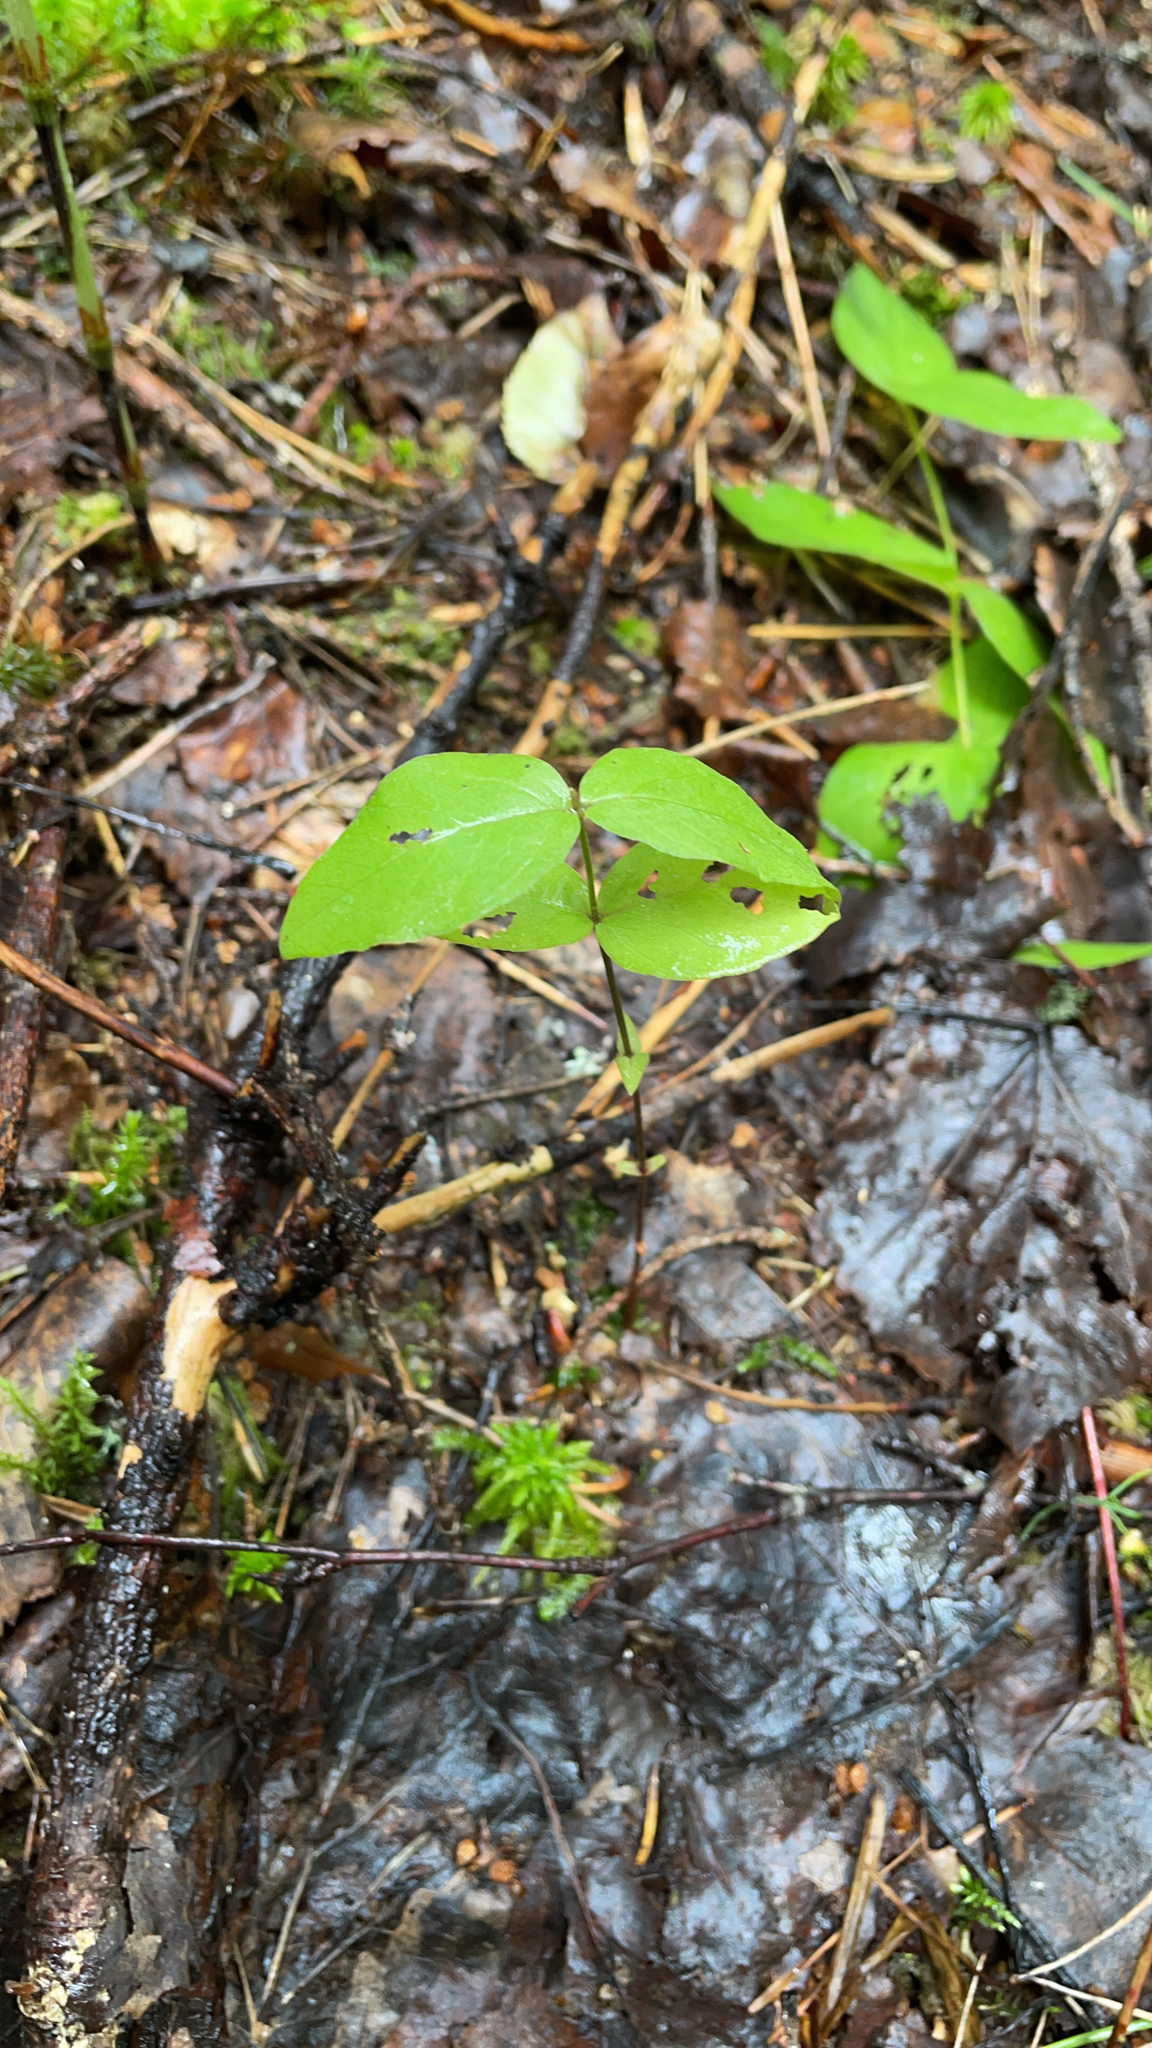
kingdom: Plantae
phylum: Tracheophyta
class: Magnoliopsida
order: Ericales
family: Primulaceae
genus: Lysimachia
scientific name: Lysimachia vulgaris
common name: Yellow loosestrife
